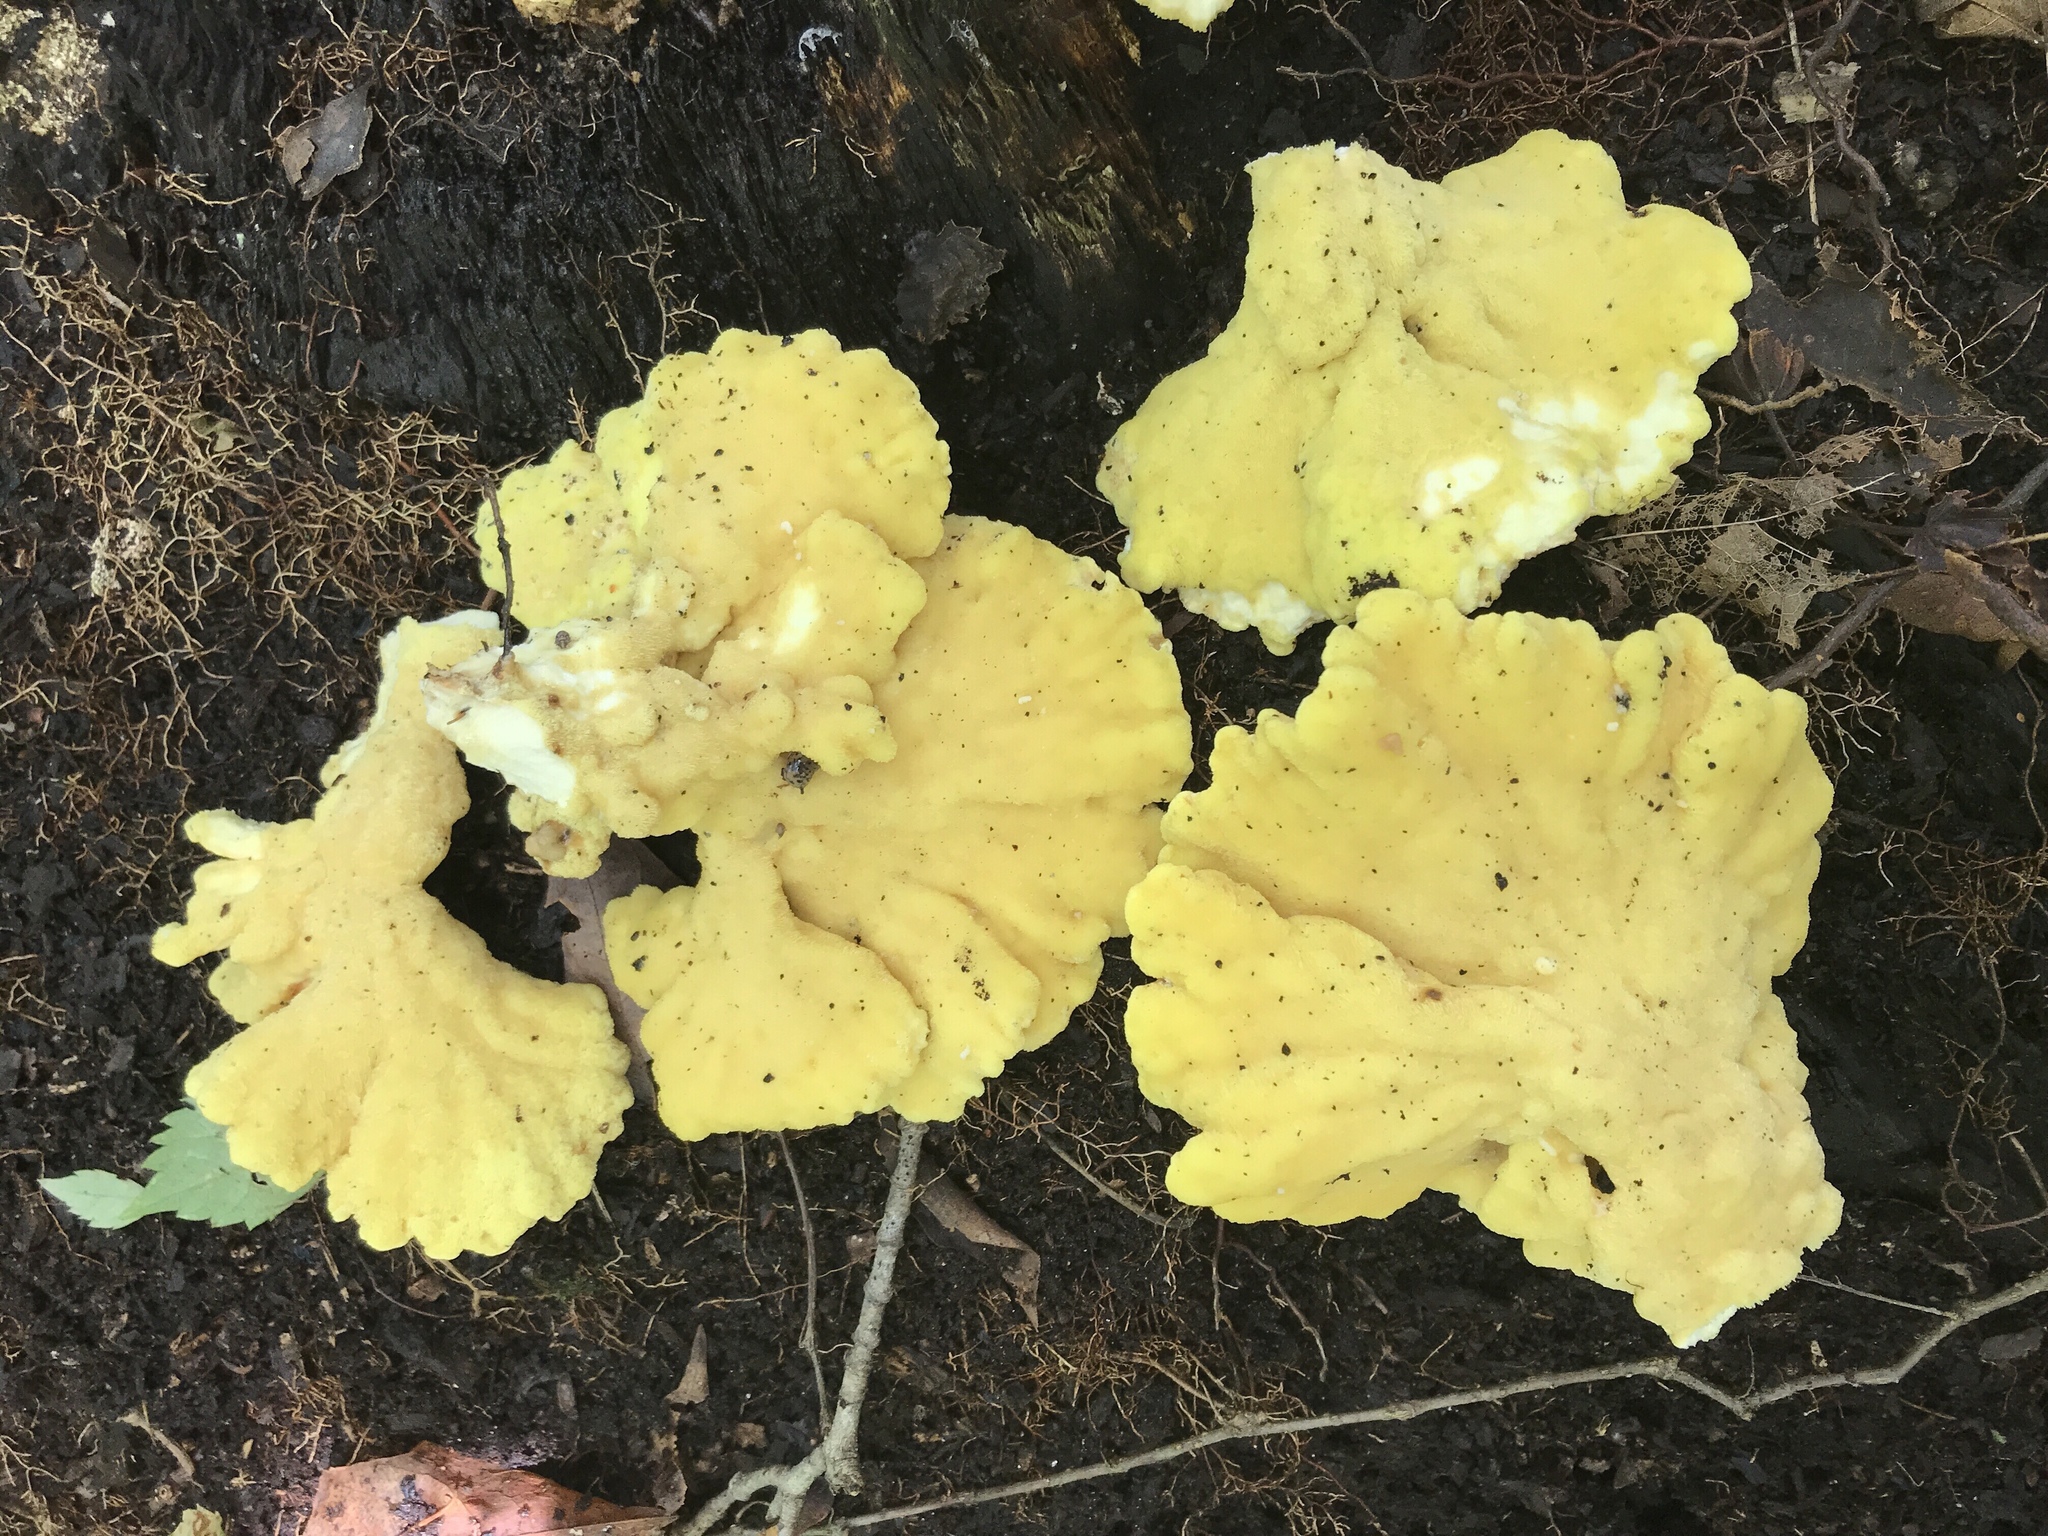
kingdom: Fungi
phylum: Basidiomycota
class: Agaricomycetes
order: Polyporales
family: Laetiporaceae
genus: Laetiporus
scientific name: Laetiporus sulphureus
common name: Chicken of the woods
